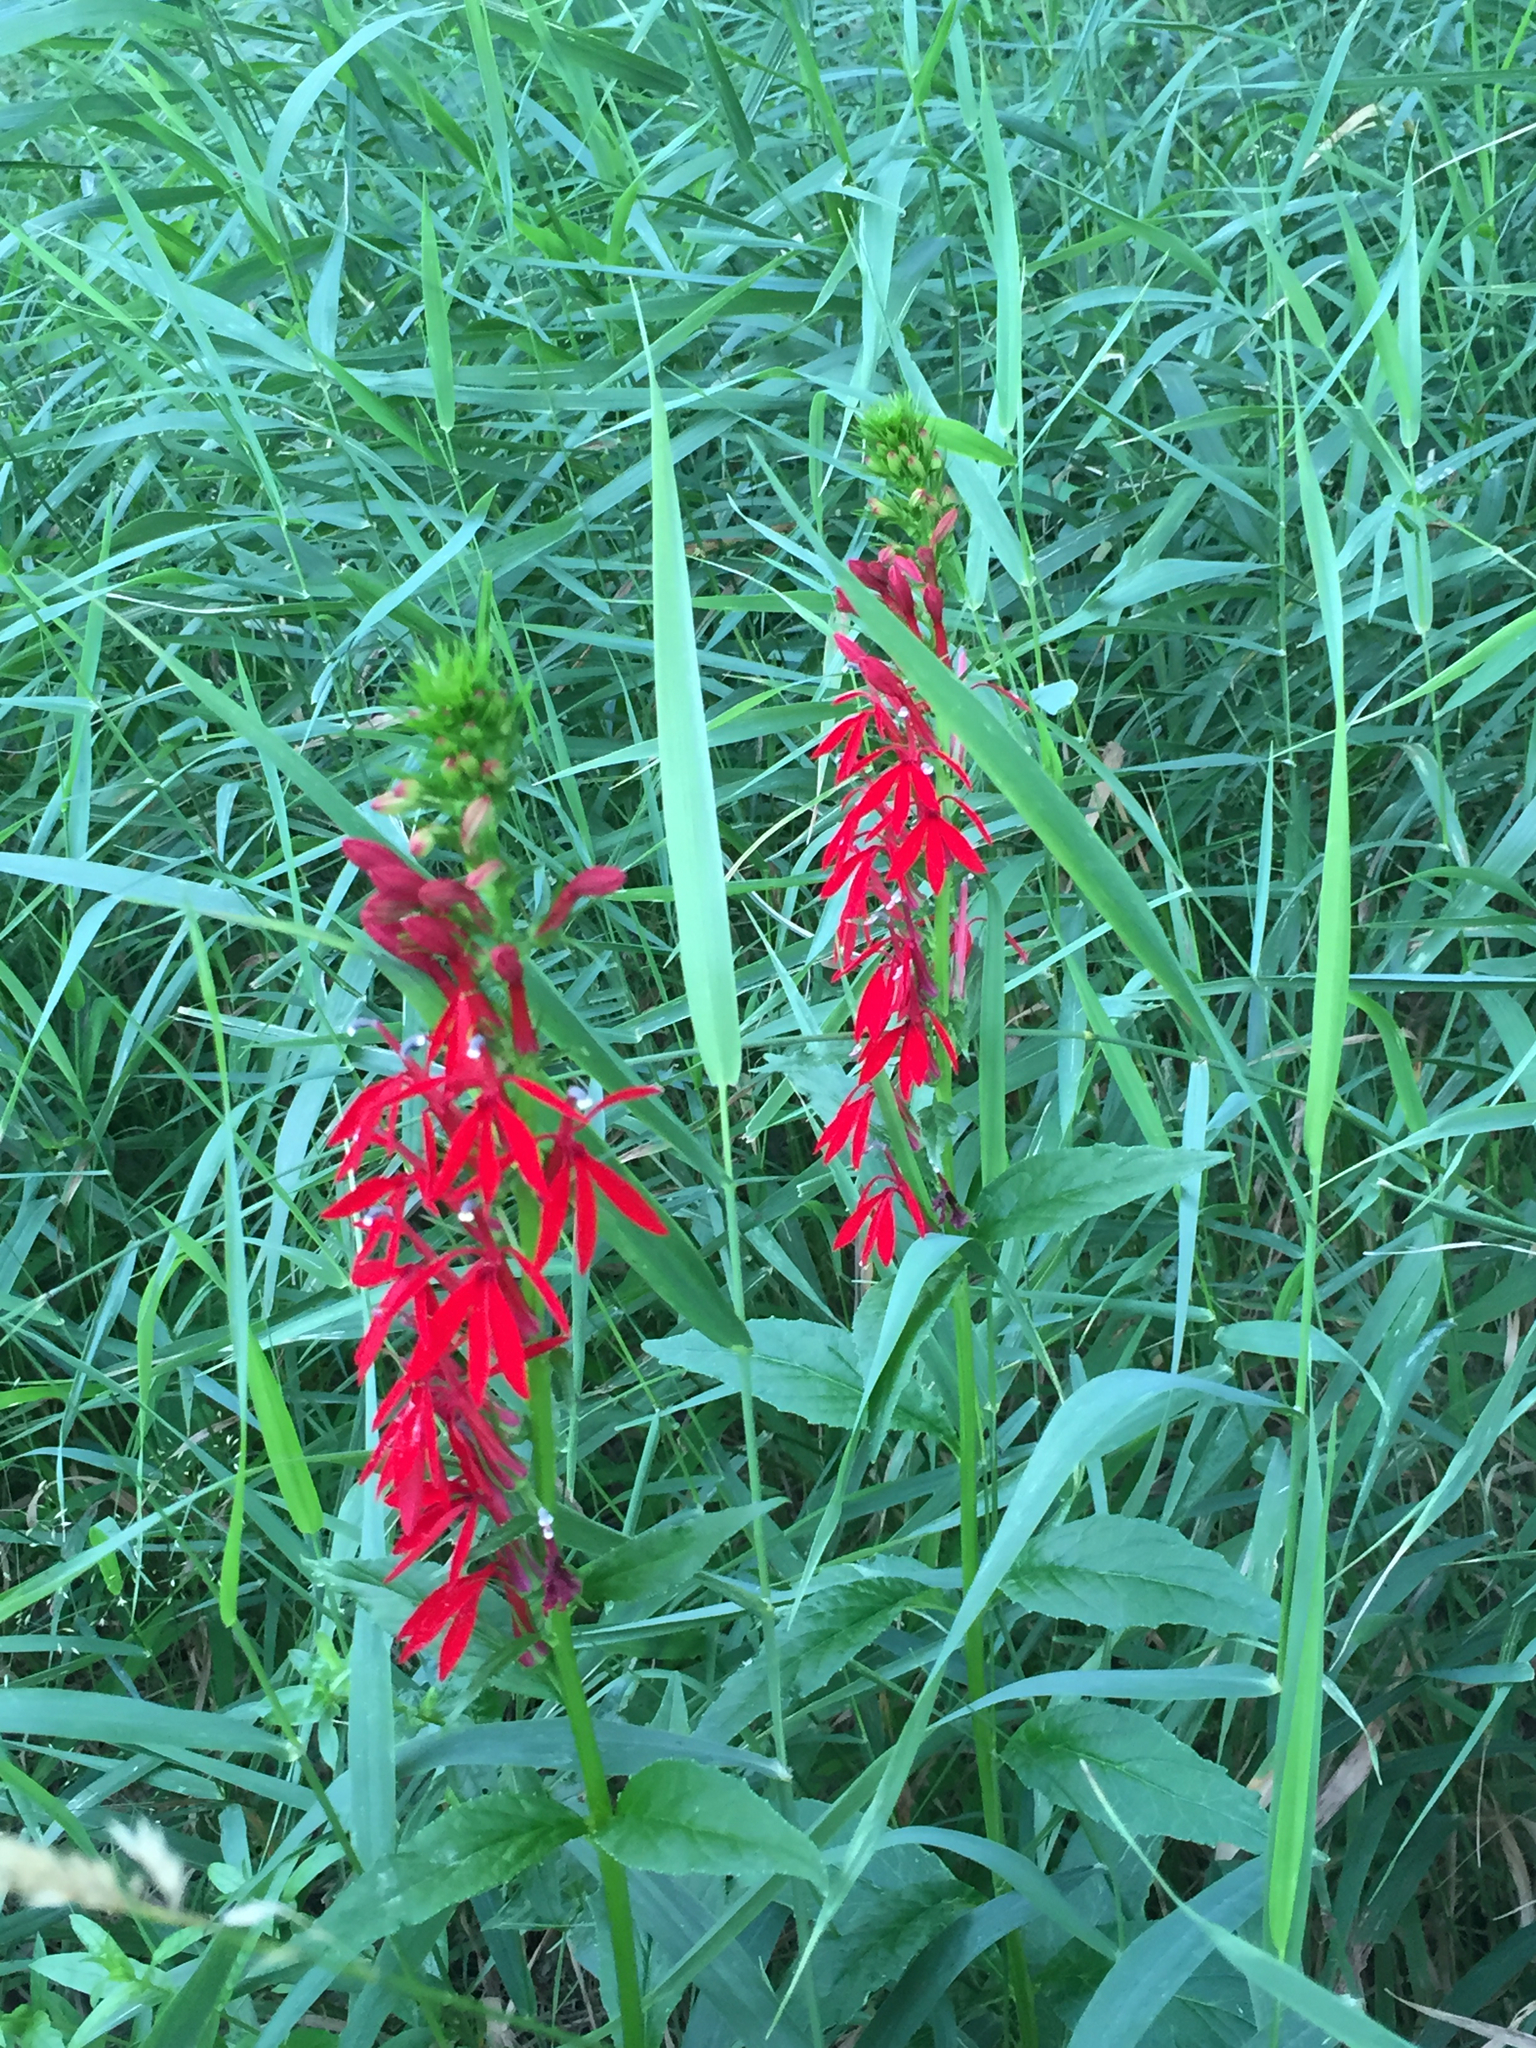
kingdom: Plantae
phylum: Tracheophyta
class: Magnoliopsida
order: Asterales
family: Campanulaceae
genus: Lobelia
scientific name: Lobelia cardinalis
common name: Cardinal flower
